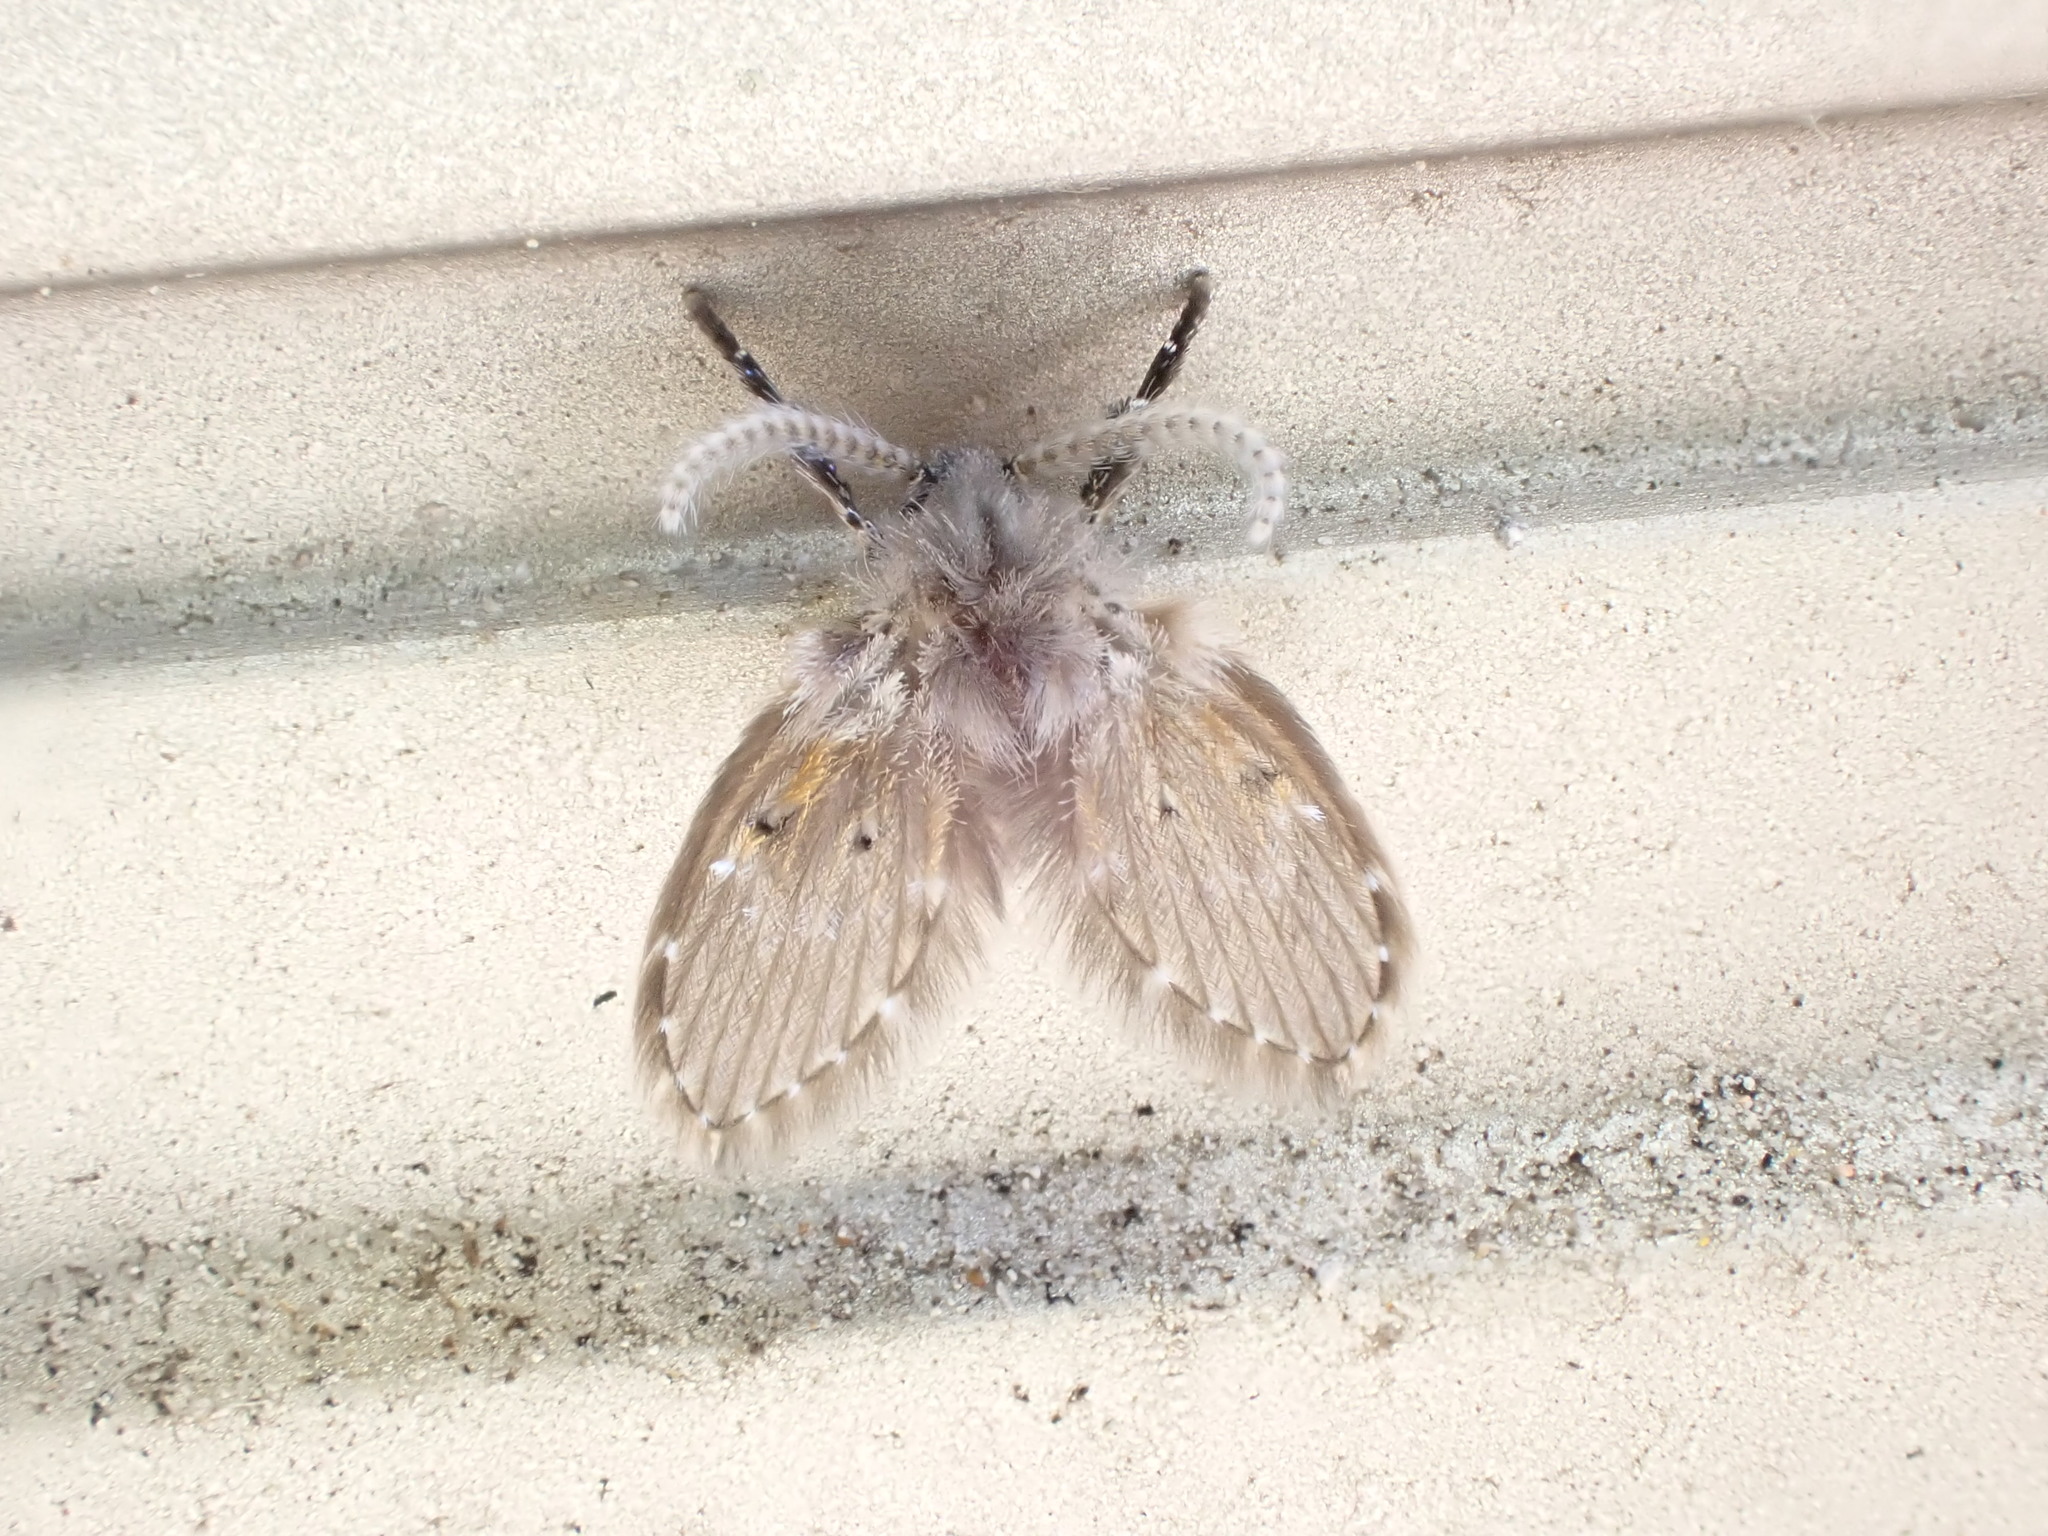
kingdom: Animalia
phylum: Arthropoda
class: Insecta
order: Diptera
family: Psychodidae
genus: Clogmia
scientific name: Clogmia albipunctatus
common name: White-spotted moth fly
